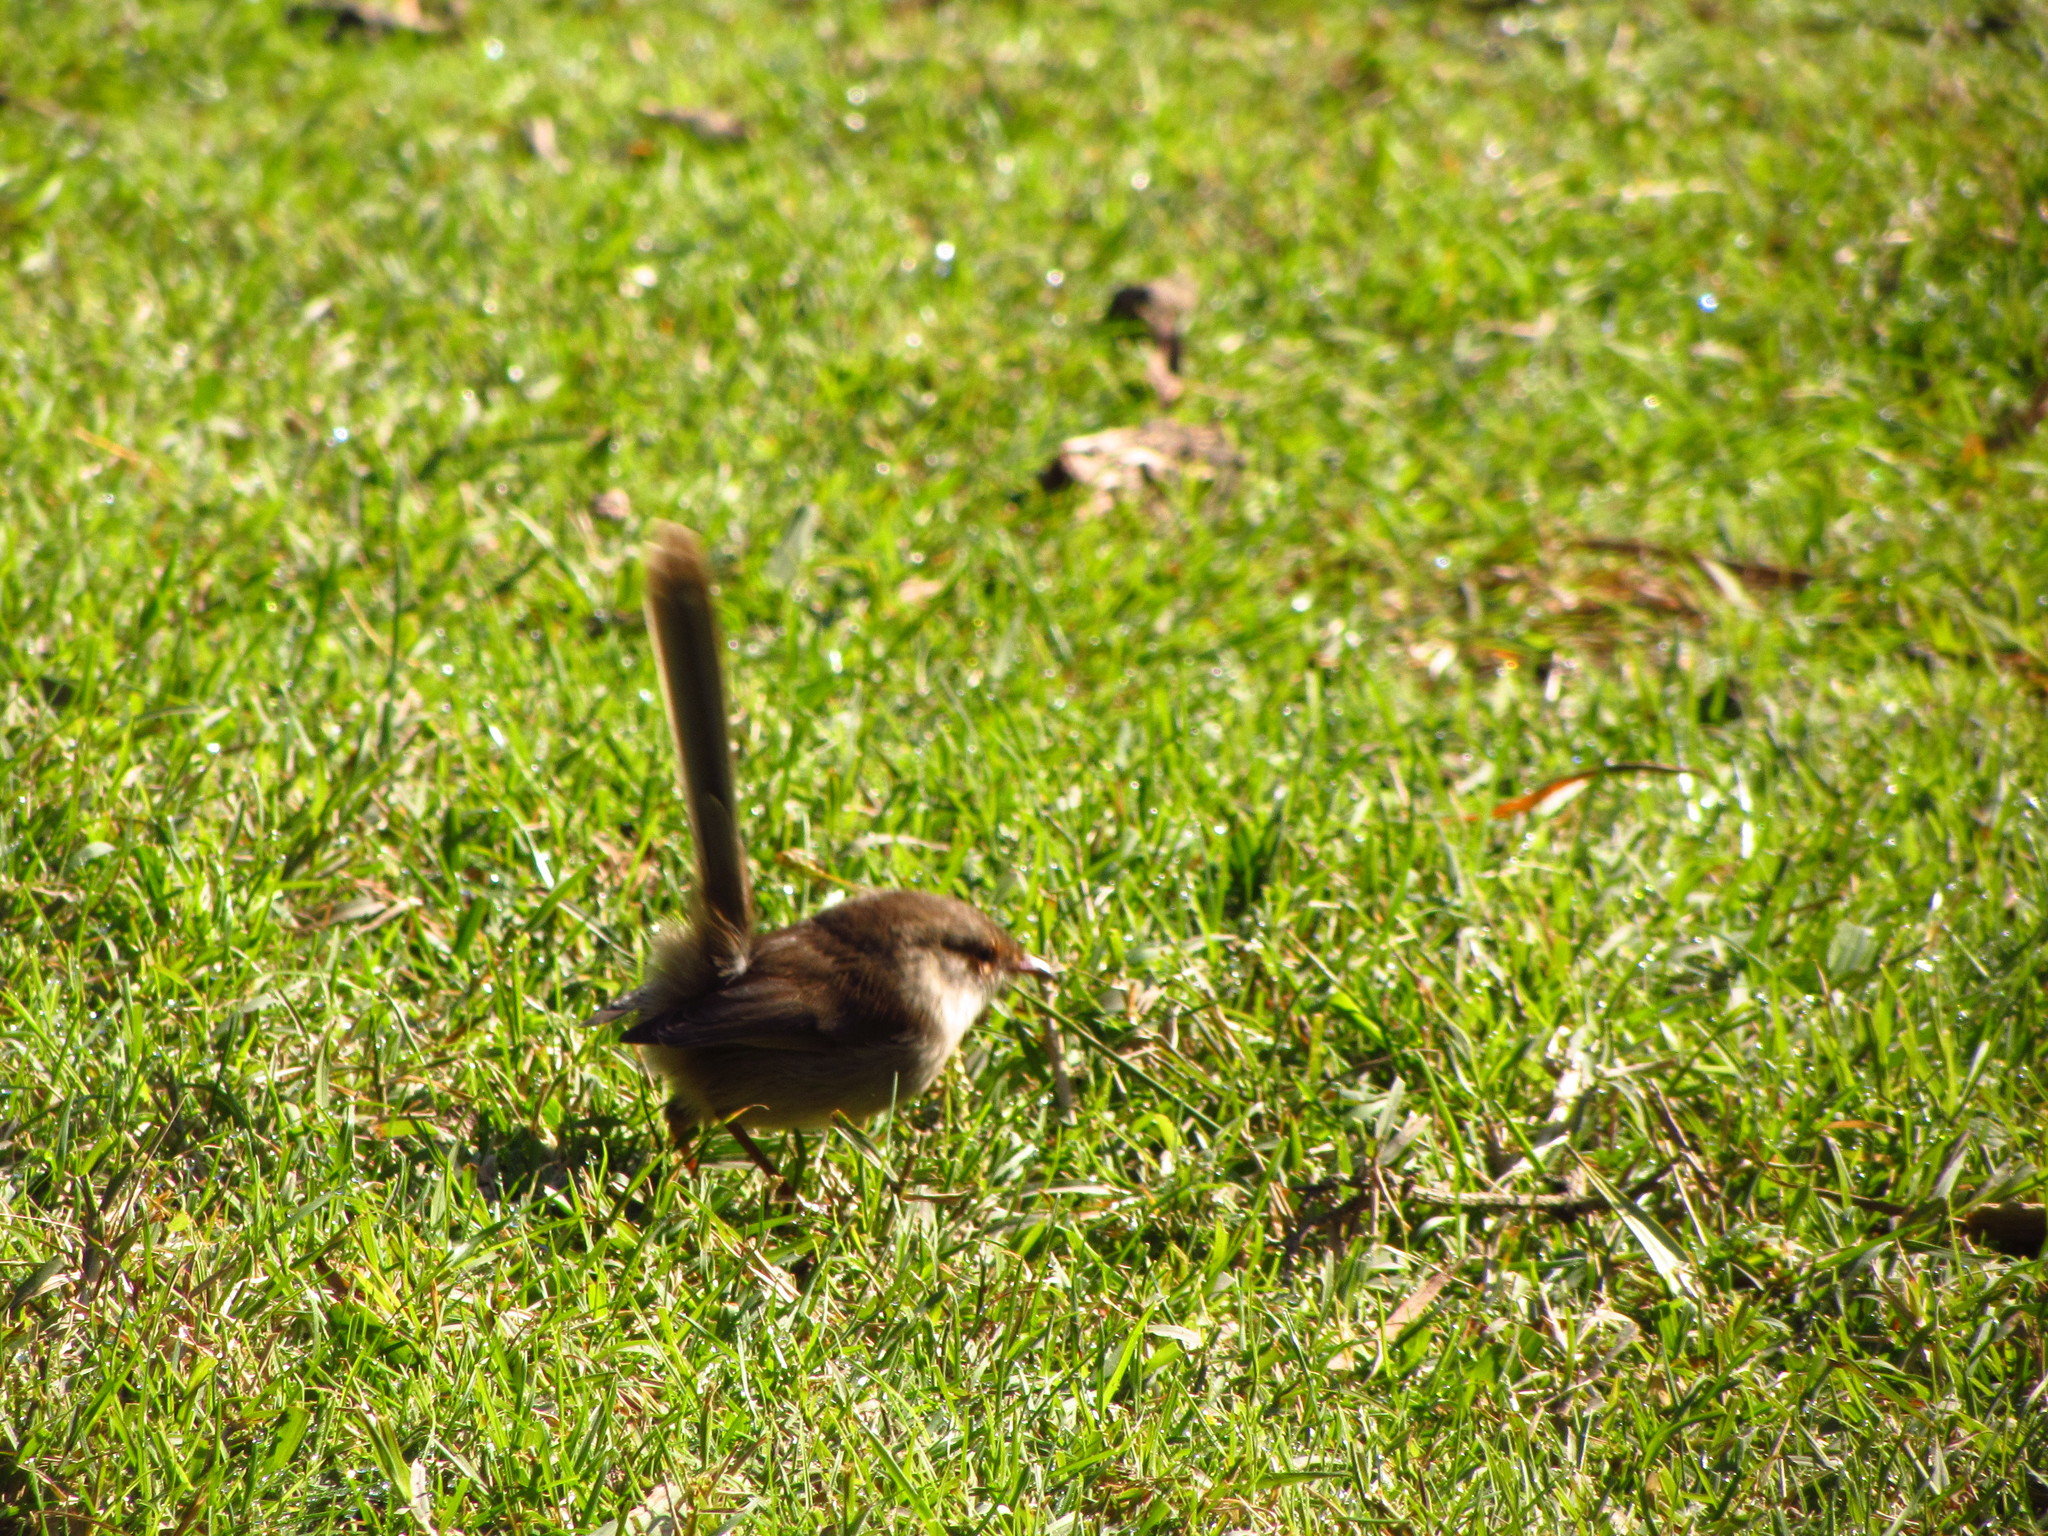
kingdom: Animalia
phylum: Chordata
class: Aves
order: Passeriformes
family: Maluridae
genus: Malurus
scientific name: Malurus cyaneus
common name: Superb fairywren
